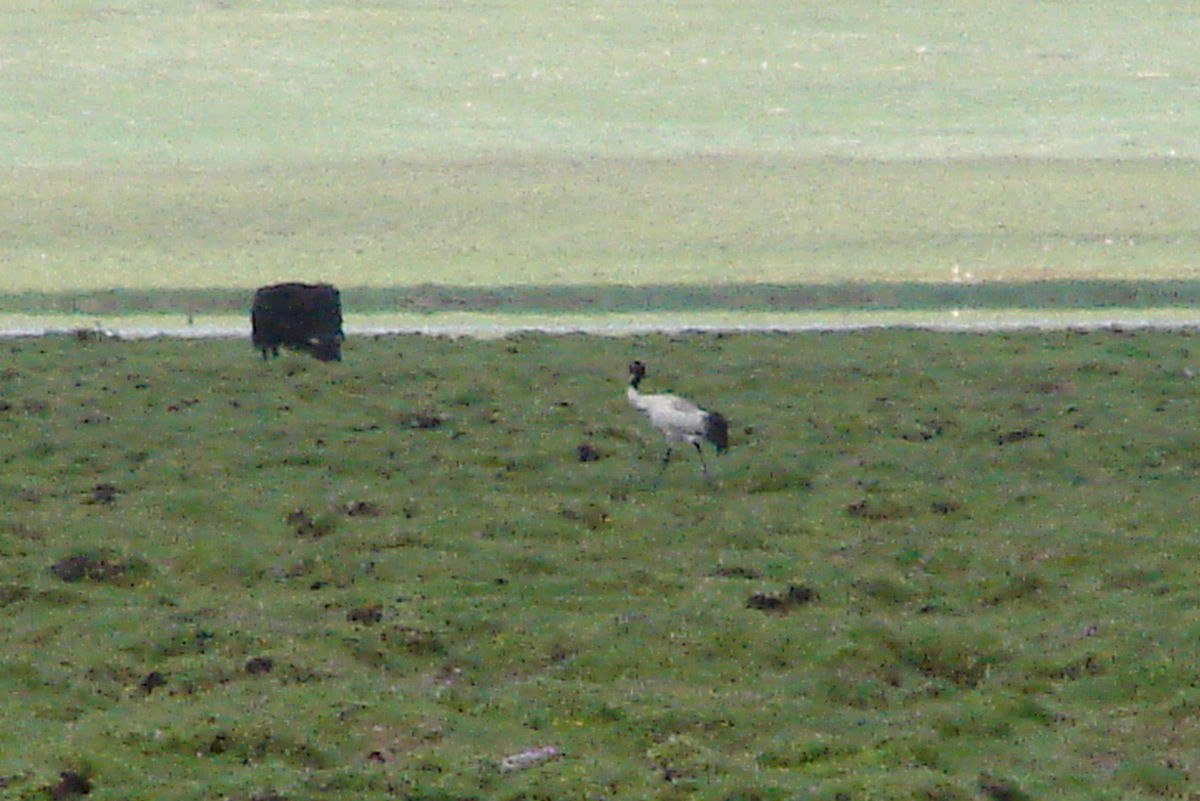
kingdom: Animalia
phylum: Chordata
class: Aves
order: Gruiformes
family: Gruidae
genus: Grus
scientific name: Grus nigricollis
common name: Black-necked crane
